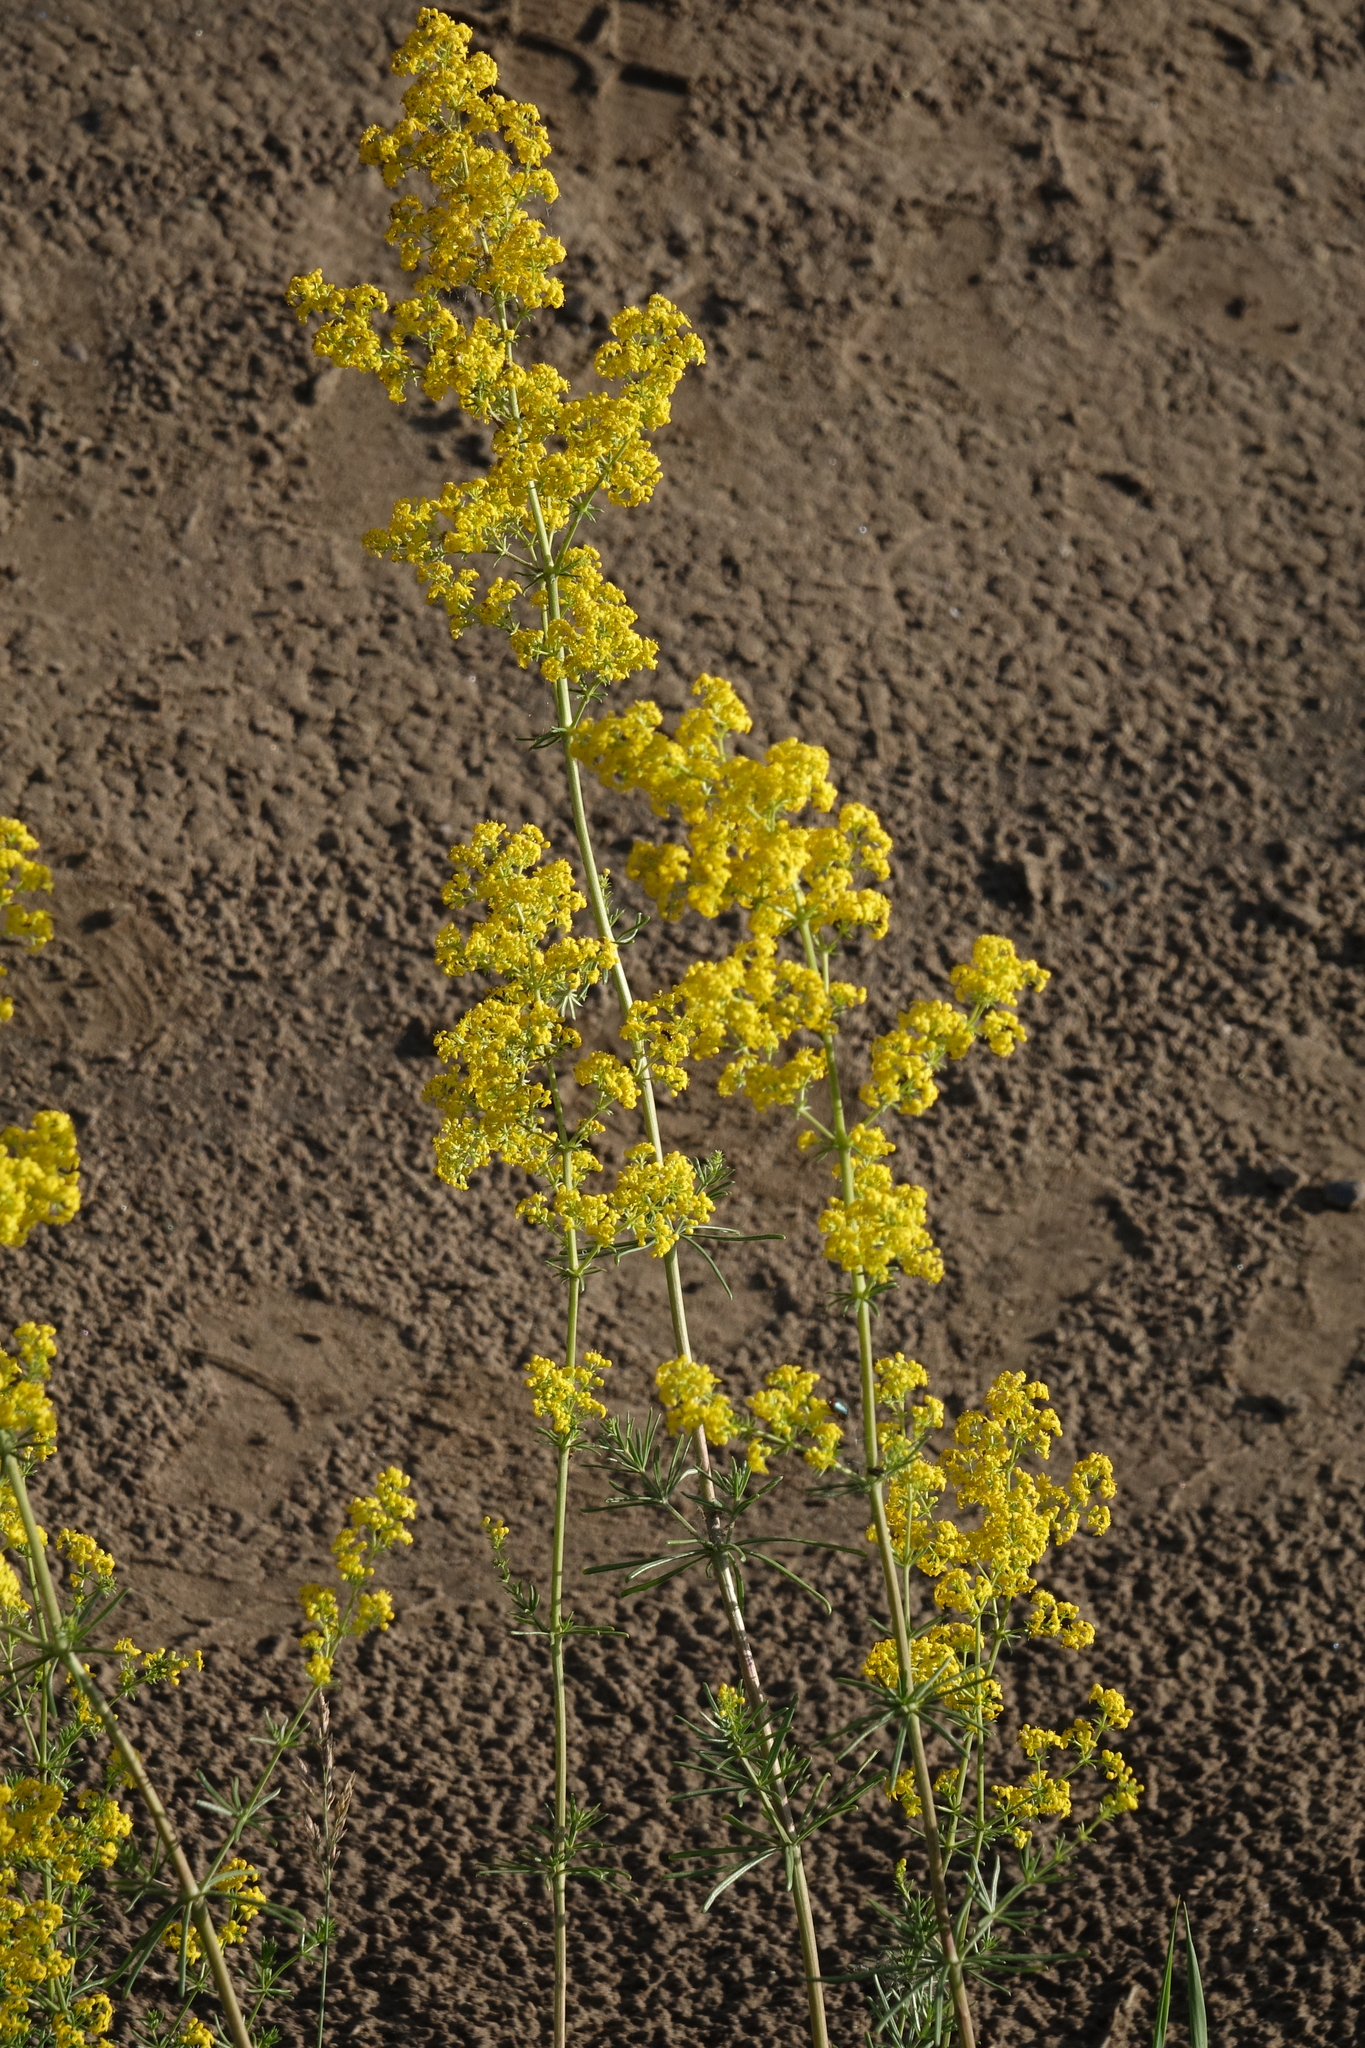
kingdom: Plantae
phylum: Tracheophyta
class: Magnoliopsida
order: Gentianales
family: Rubiaceae
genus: Galium
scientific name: Galium verum
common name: Lady's bedstraw
